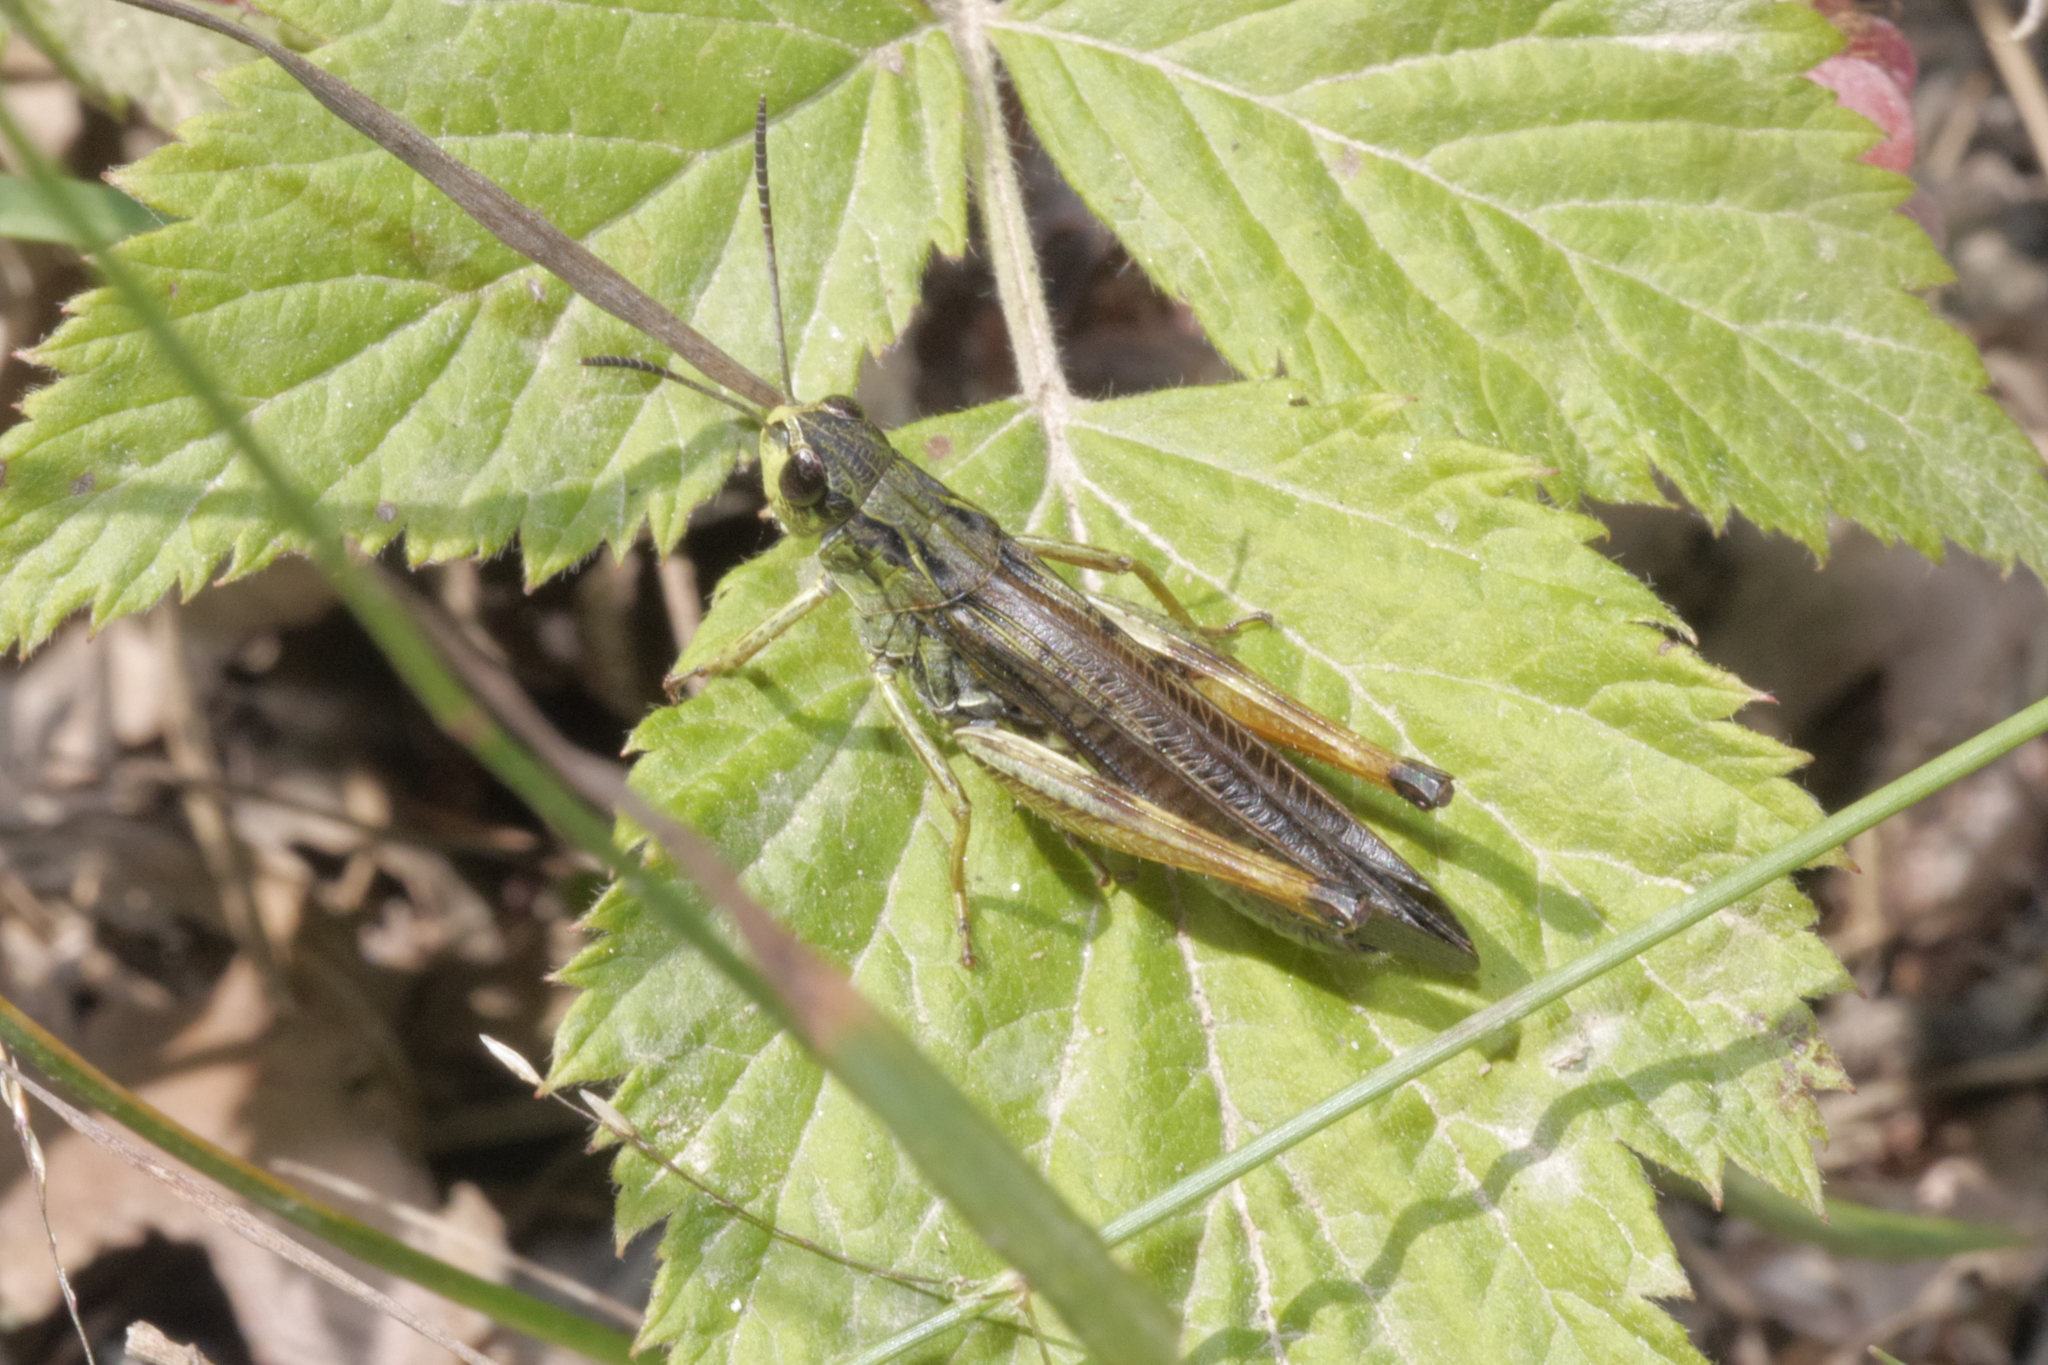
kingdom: Animalia
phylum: Arthropoda
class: Insecta
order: Orthoptera
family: Acrididae
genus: Stauroderus
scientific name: Stauroderus scalaris
